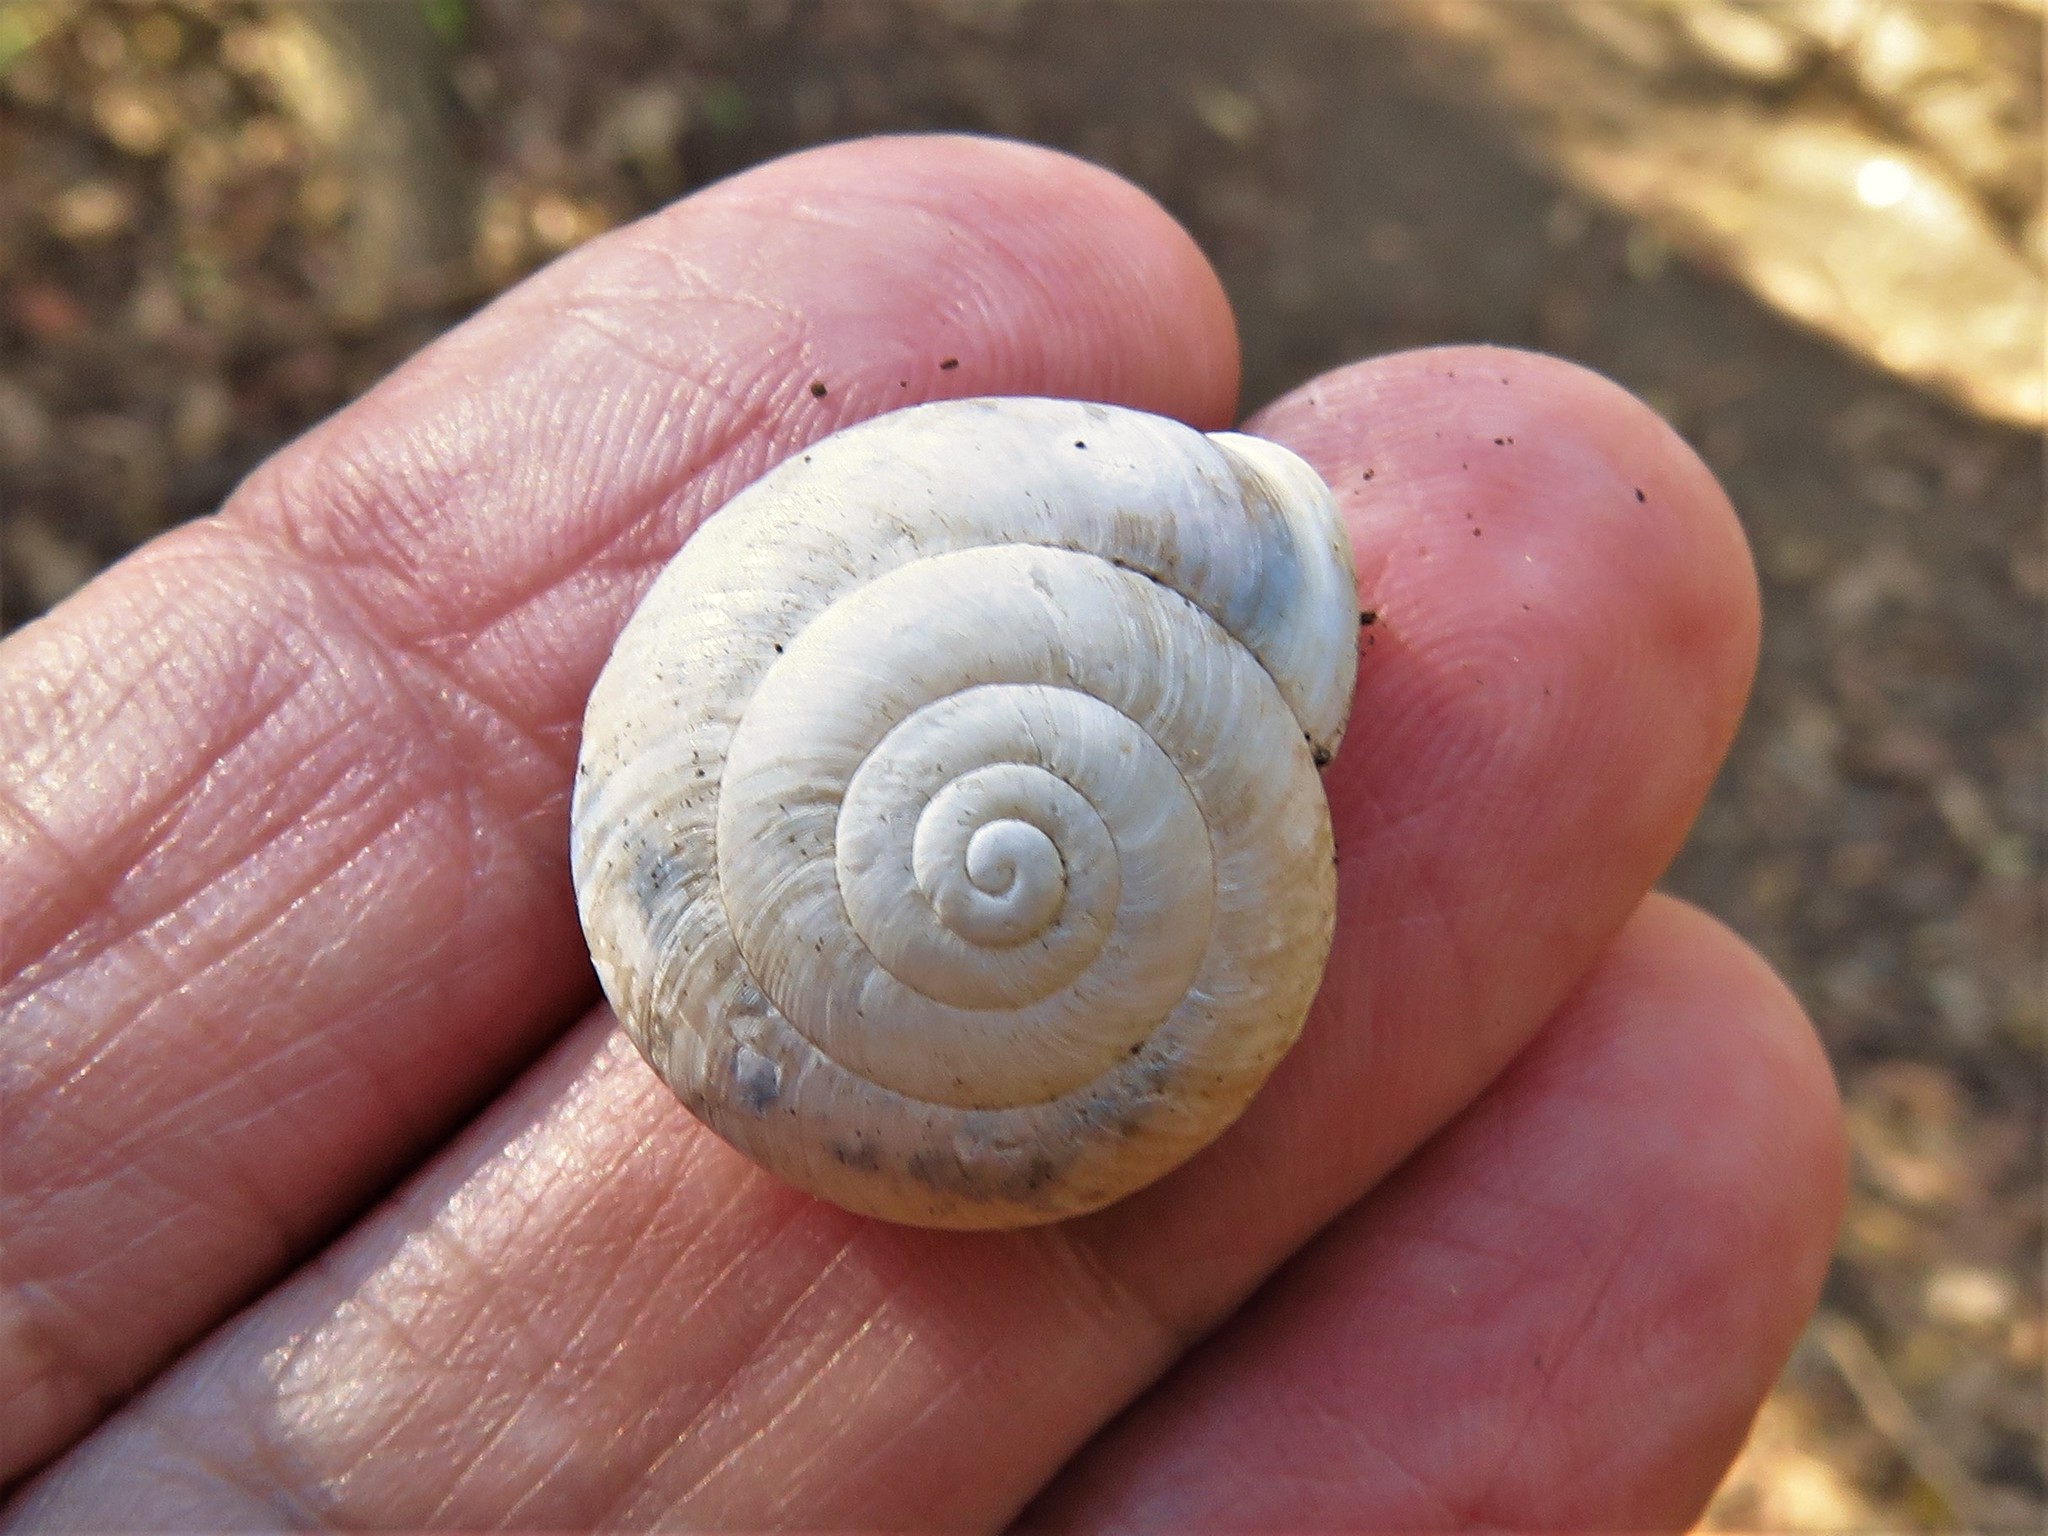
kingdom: Animalia
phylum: Mollusca
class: Gastropoda
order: Stylommatophora
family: Polygyridae
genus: Patera
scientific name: Patera roemeri
